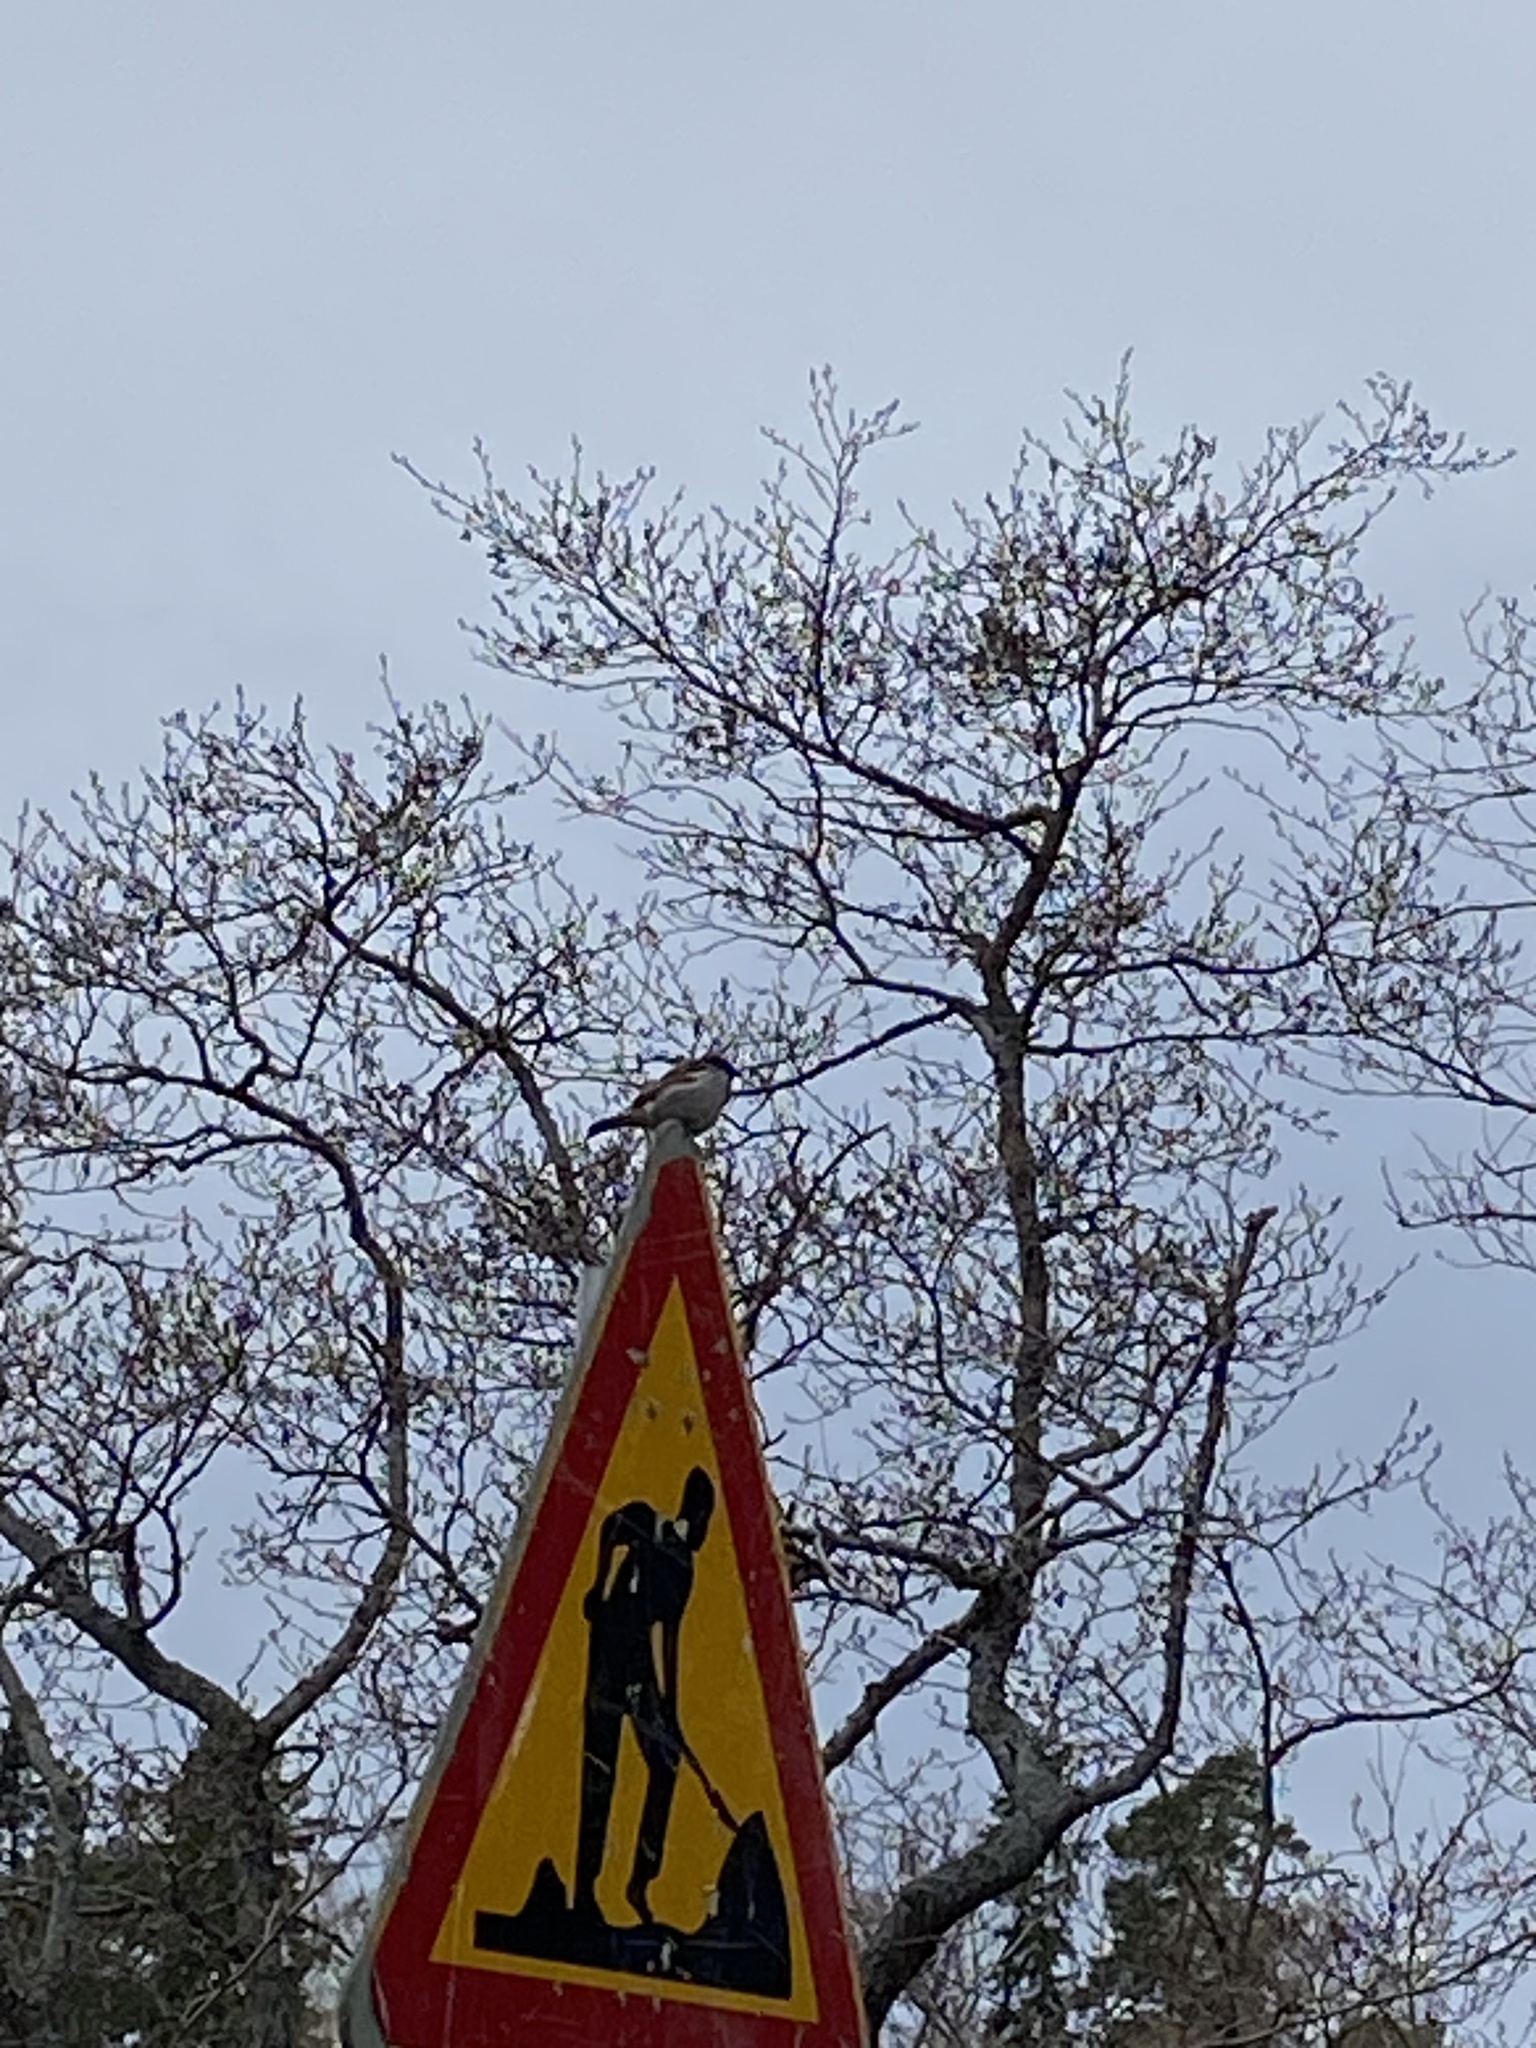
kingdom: Animalia
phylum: Chordata
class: Aves
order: Passeriformes
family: Passeridae
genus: Passer
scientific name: Passer domesticus
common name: House sparrow
